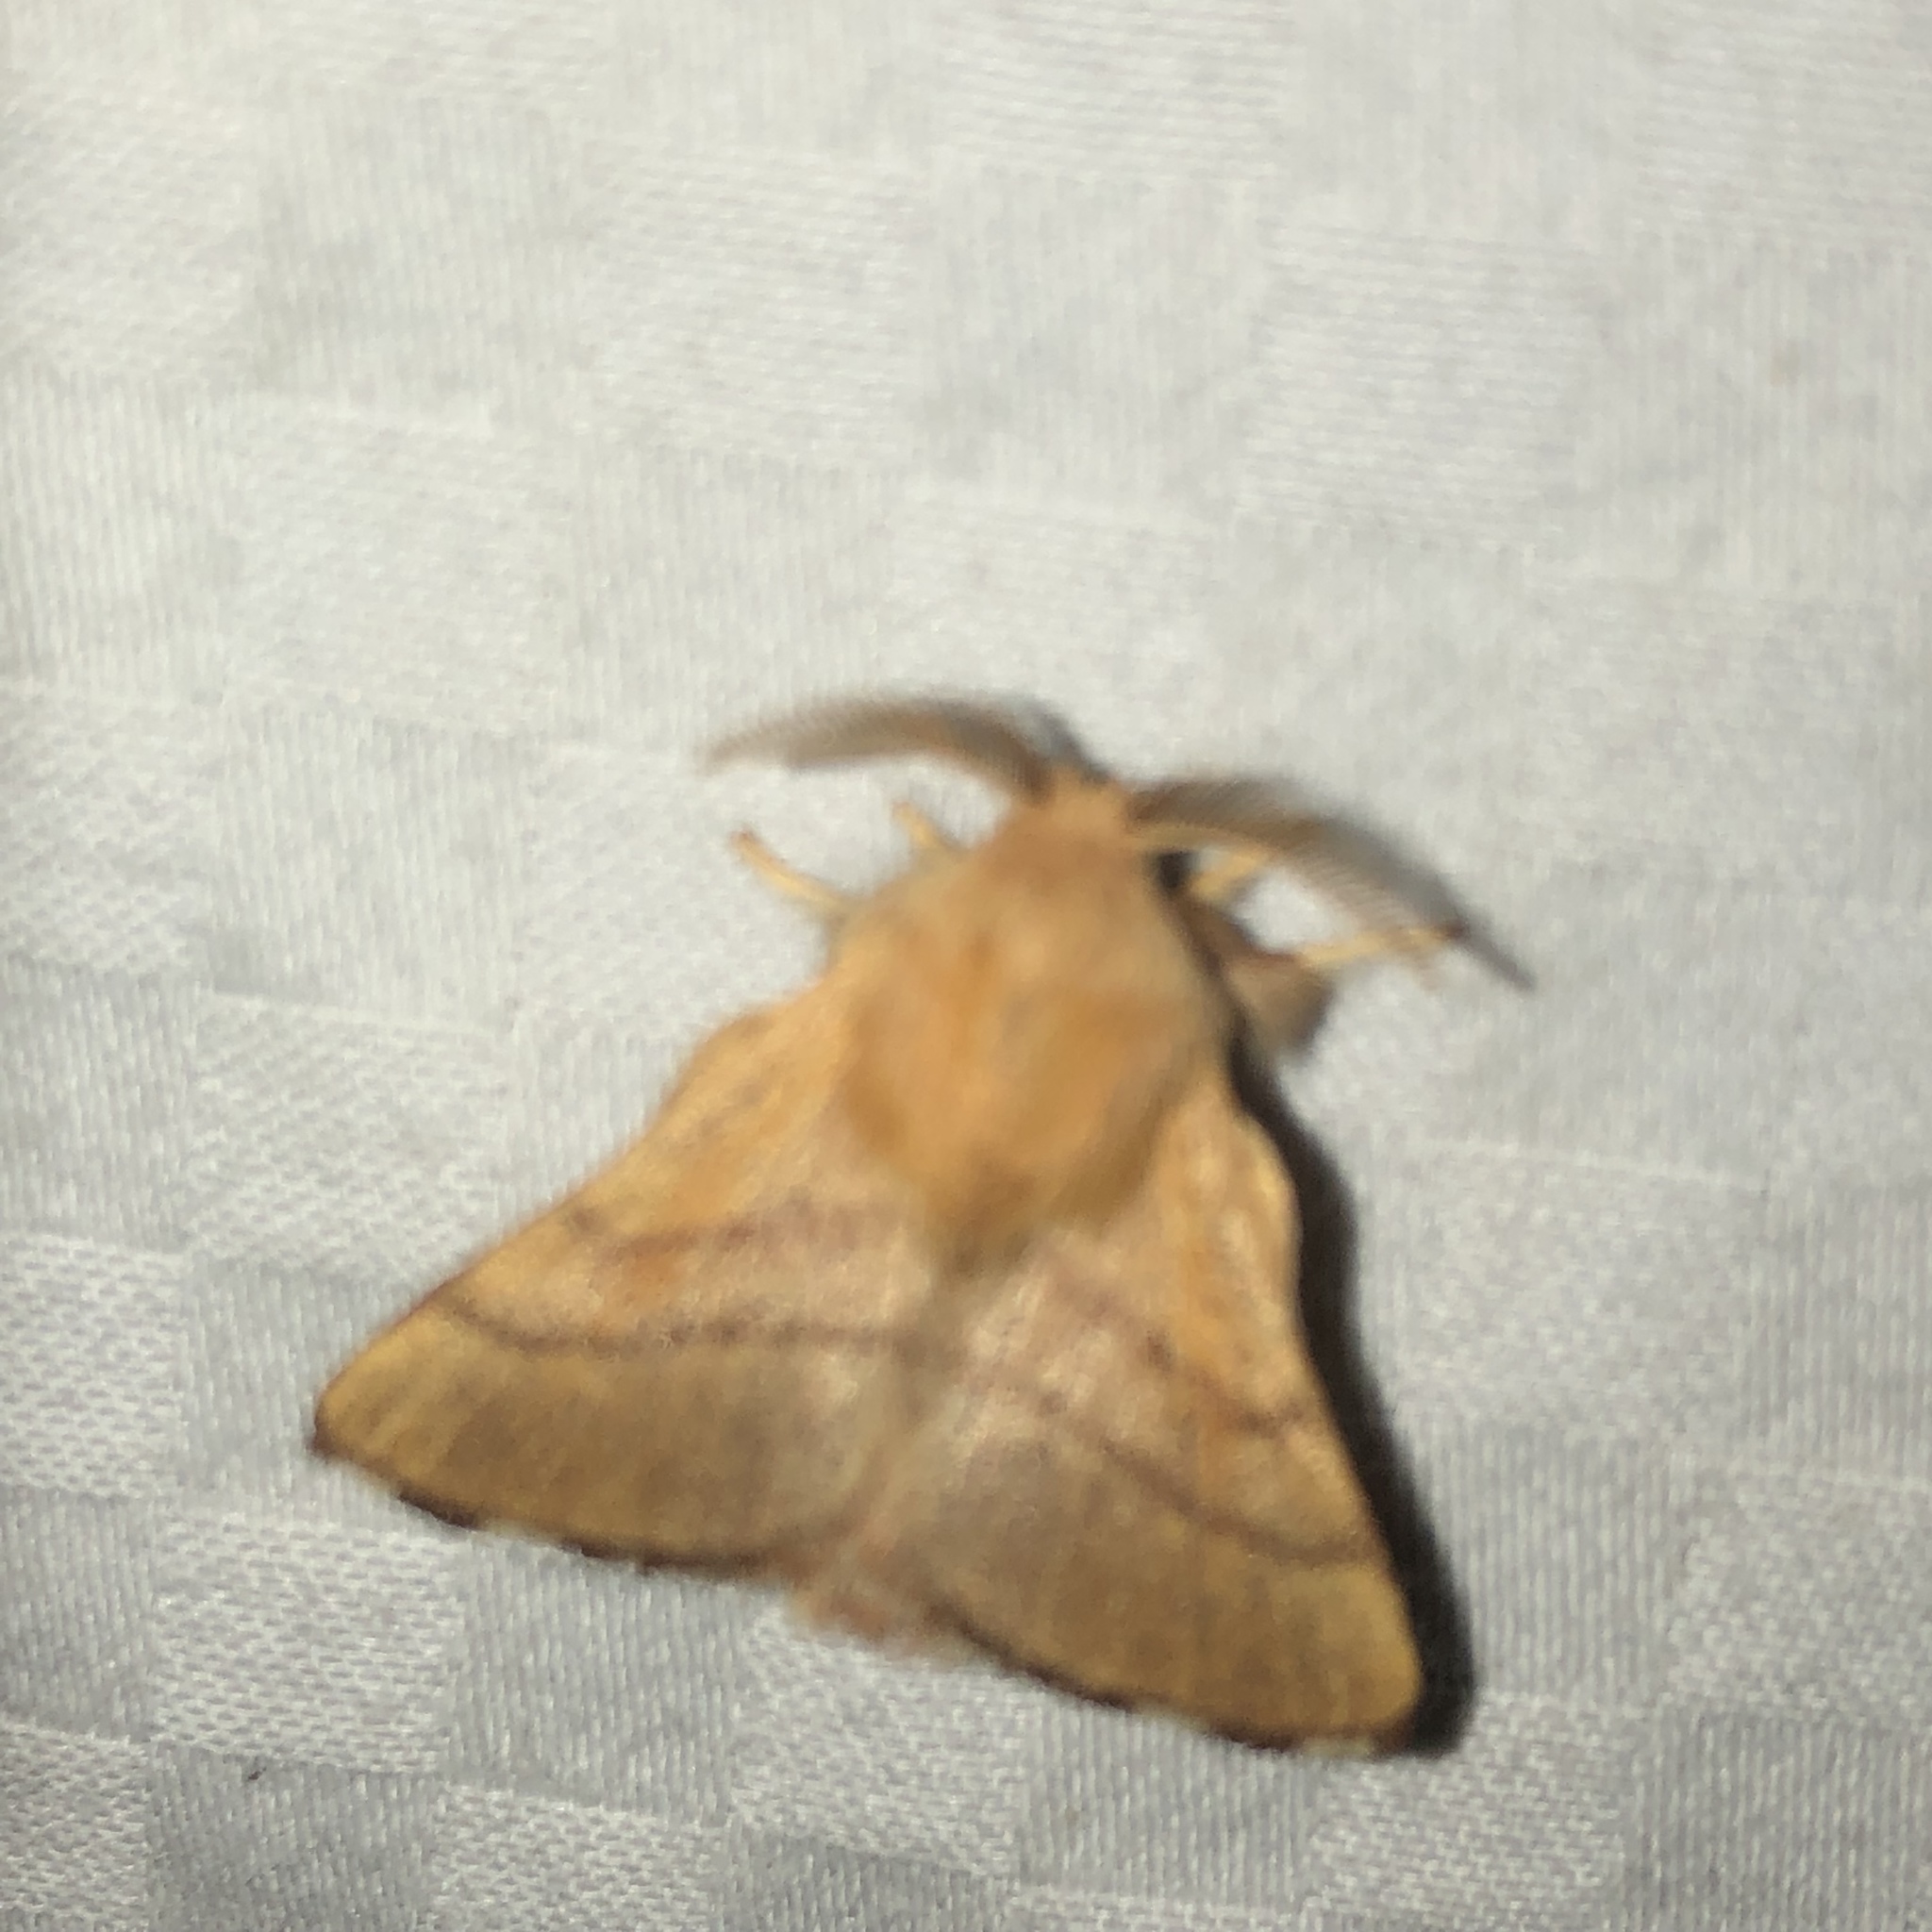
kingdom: Animalia
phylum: Arthropoda
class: Insecta
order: Lepidoptera
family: Lasiocampidae
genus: Malacosoma
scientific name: Malacosoma disstria
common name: Forest tent caterpillar
